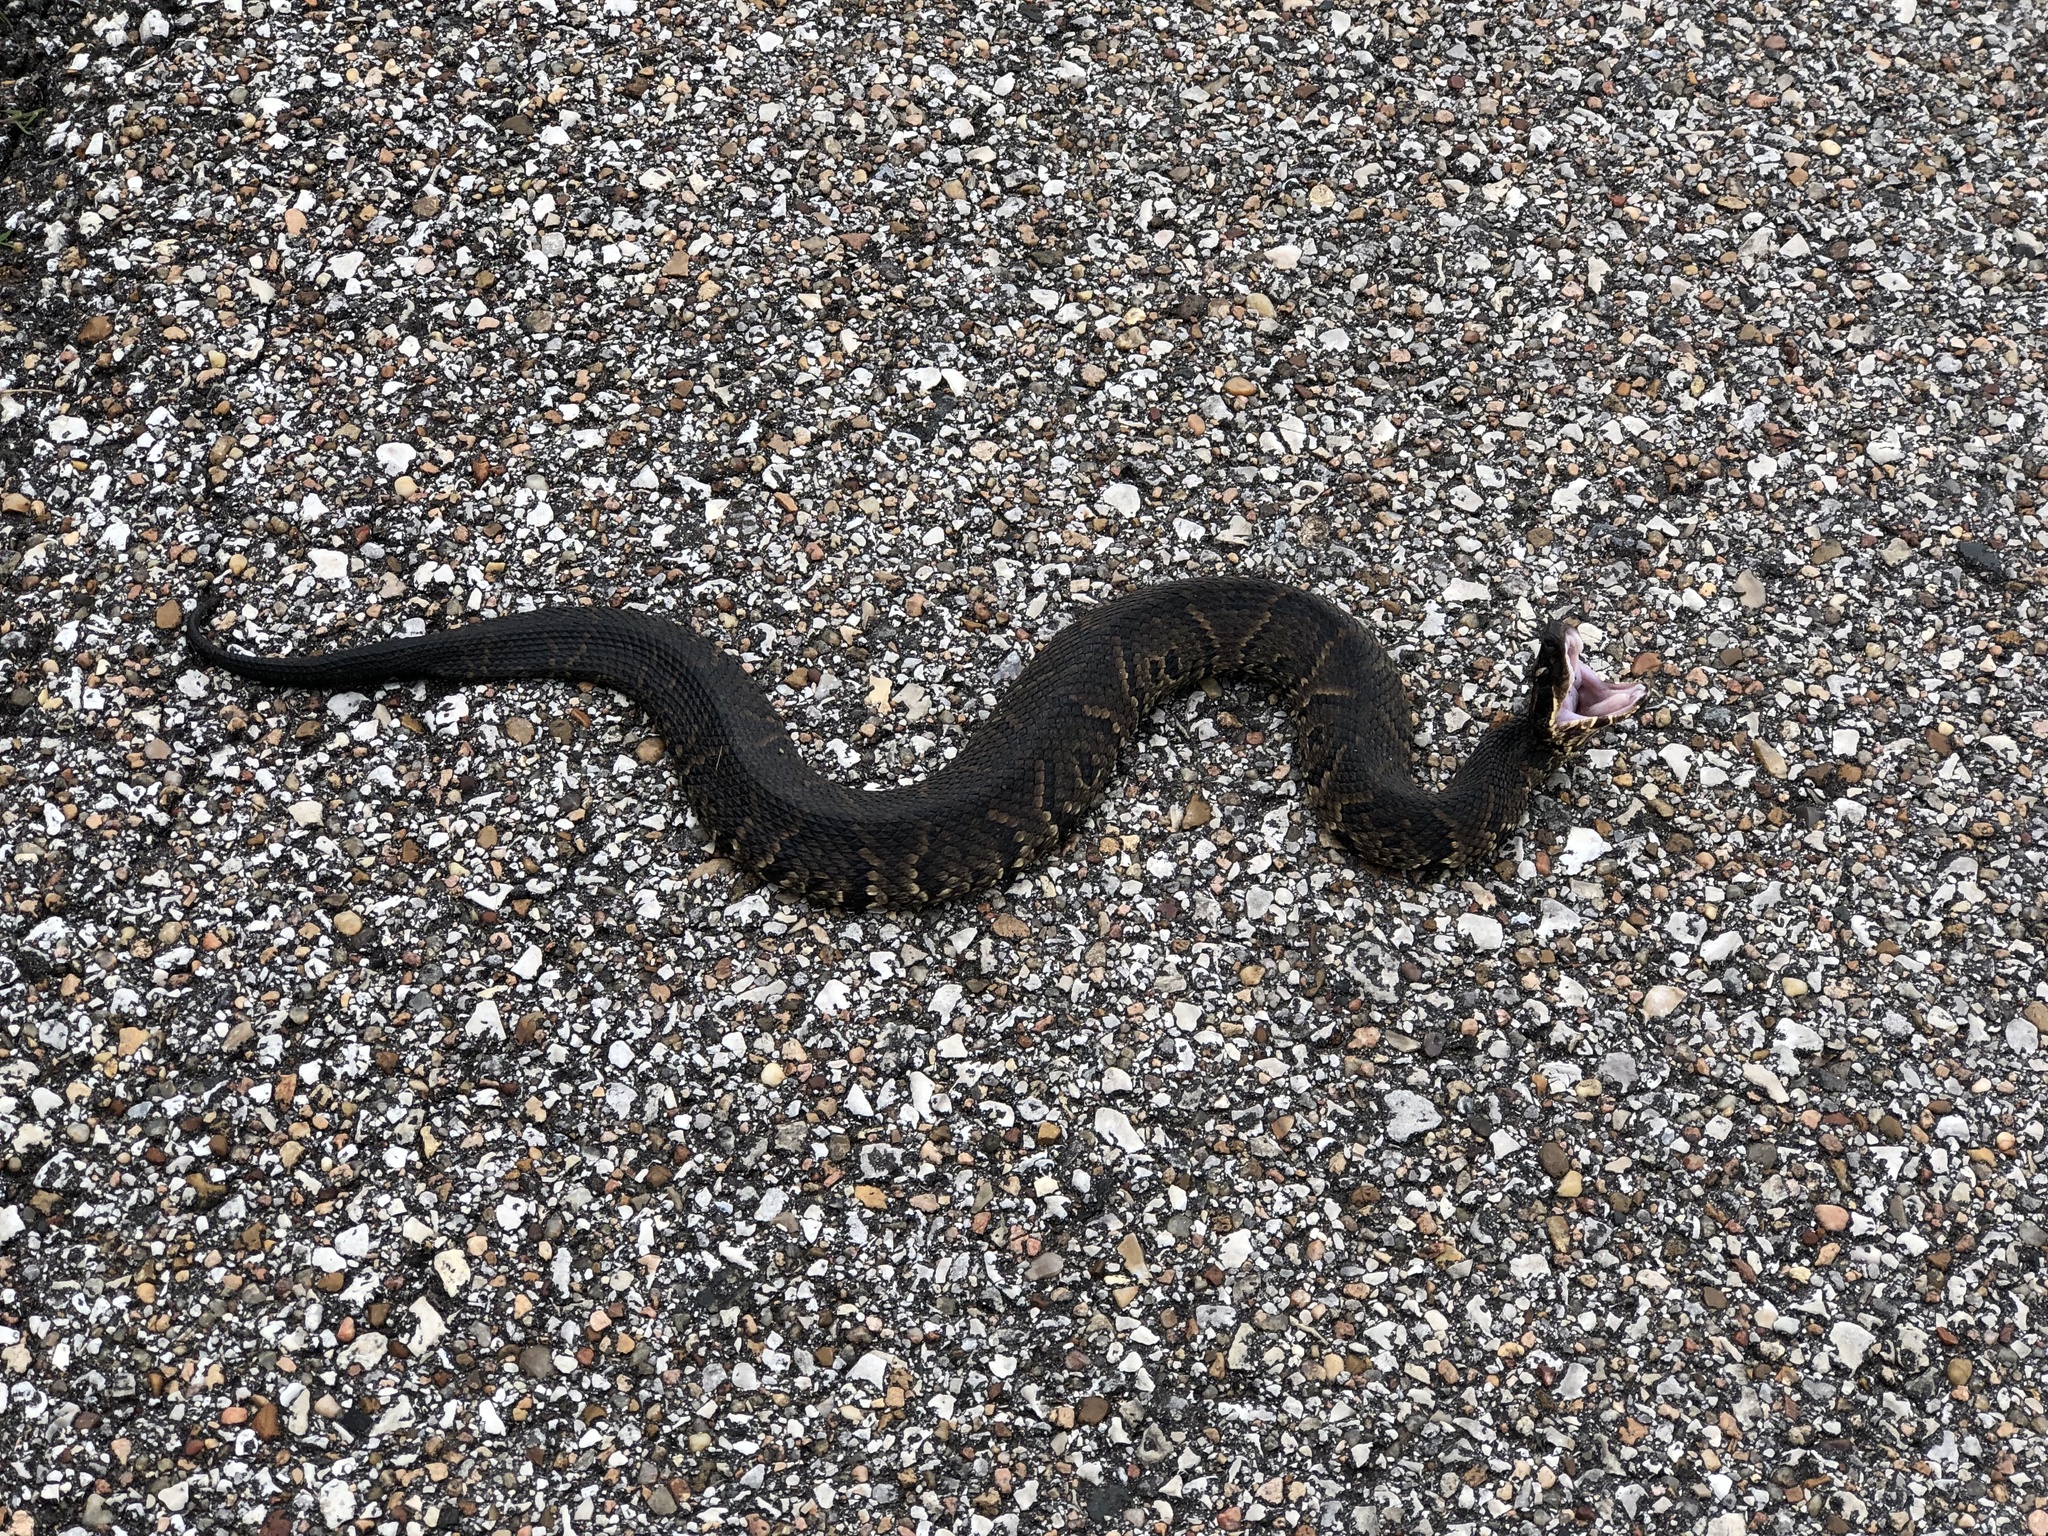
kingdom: Animalia
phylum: Chordata
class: Squamata
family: Viperidae
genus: Agkistrodon
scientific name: Agkistrodon piscivorus
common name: Cottonmouth
